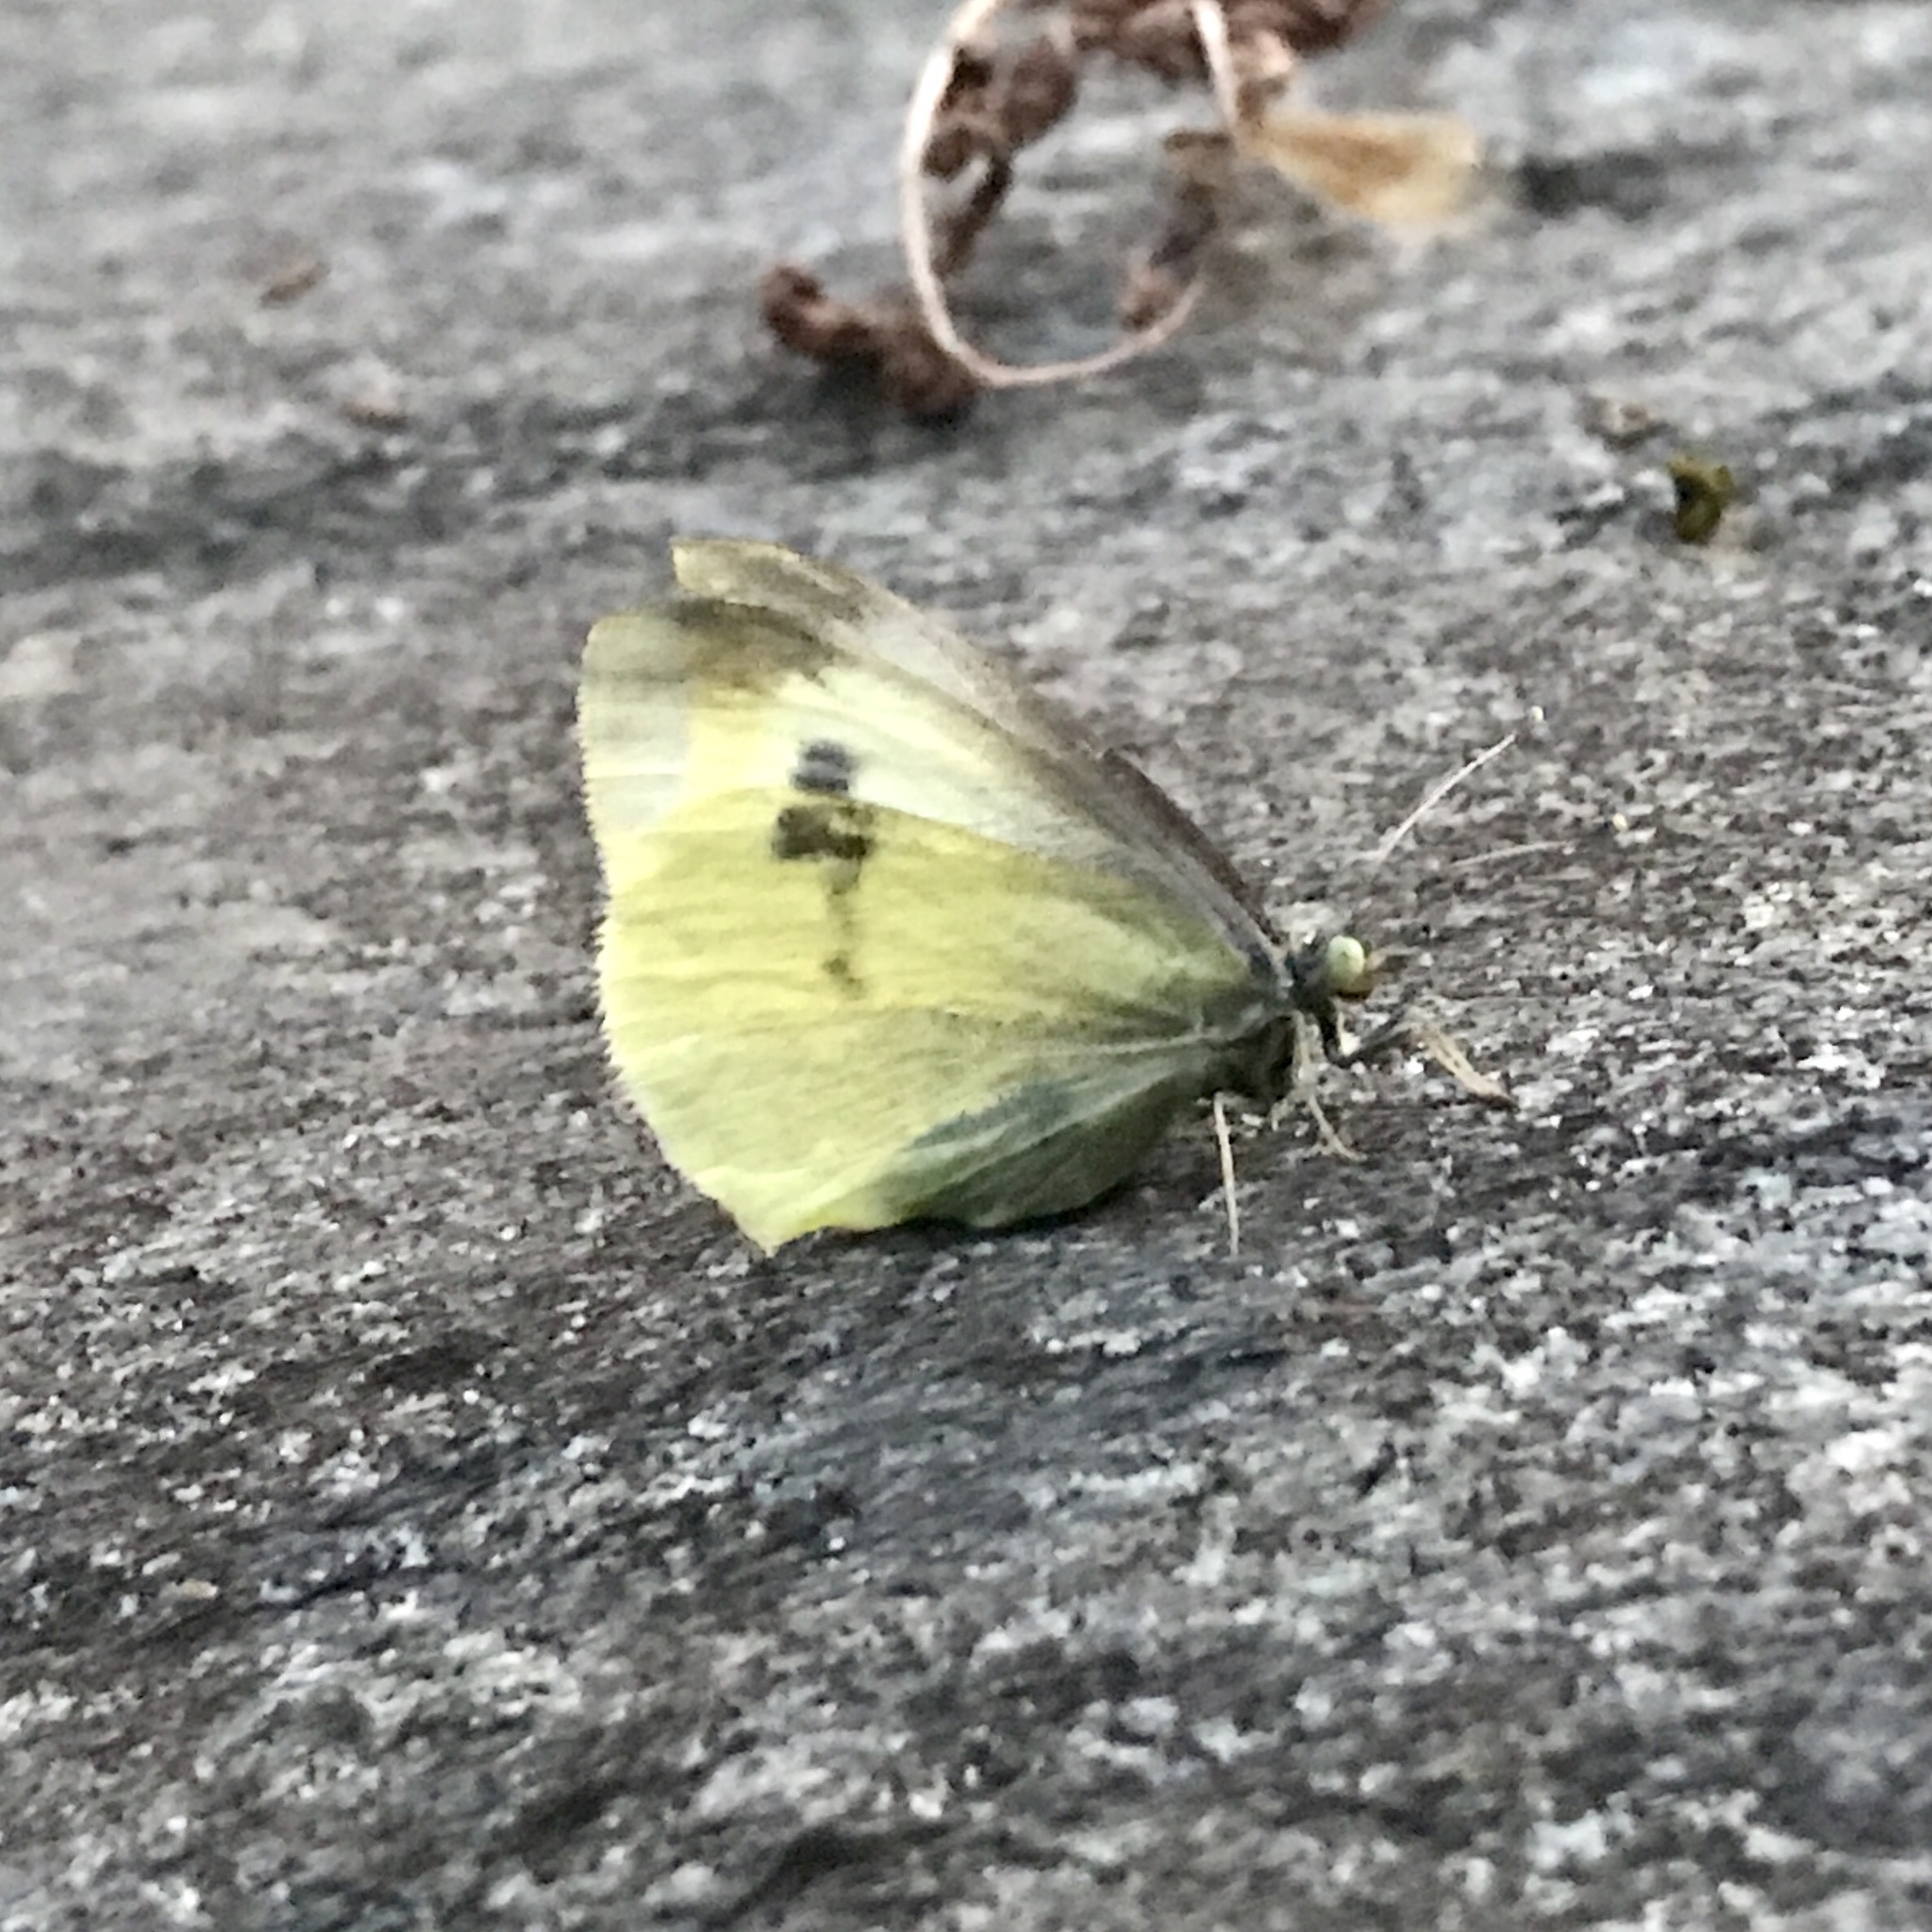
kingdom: Animalia
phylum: Arthropoda
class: Insecta
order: Lepidoptera
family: Pieridae
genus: Pieris
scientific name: Pieris rapae
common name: Small white
